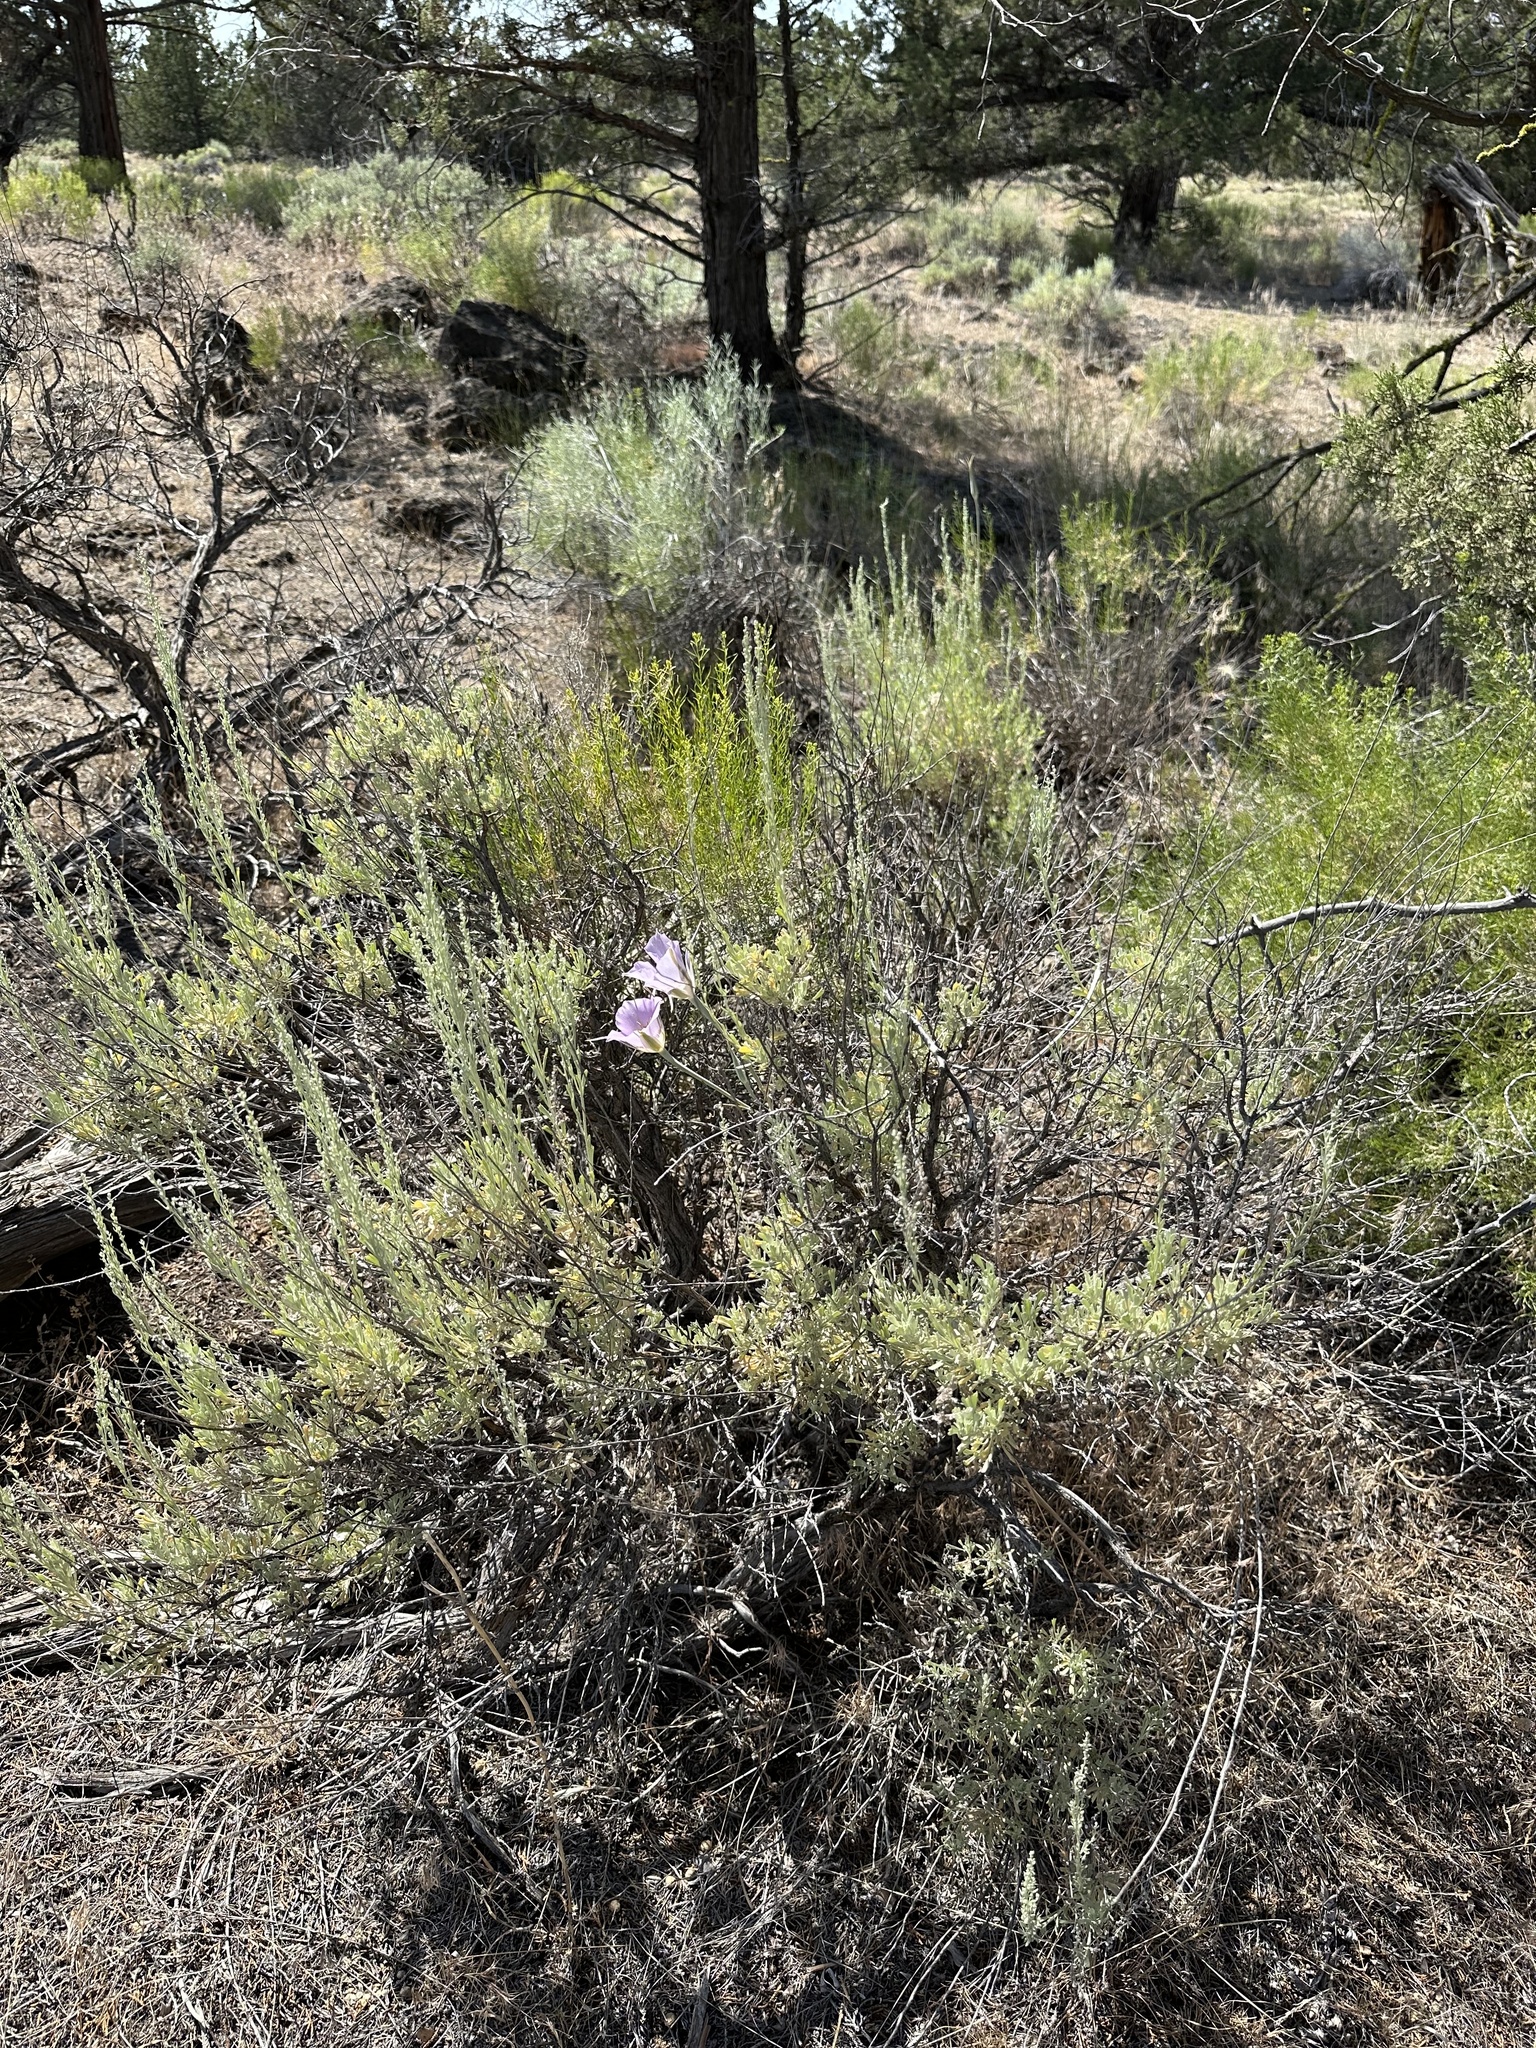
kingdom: Plantae
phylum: Tracheophyta
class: Liliopsida
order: Liliales
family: Liliaceae
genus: Calochortus
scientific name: Calochortus macrocarpus
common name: Green-band mariposa lily
